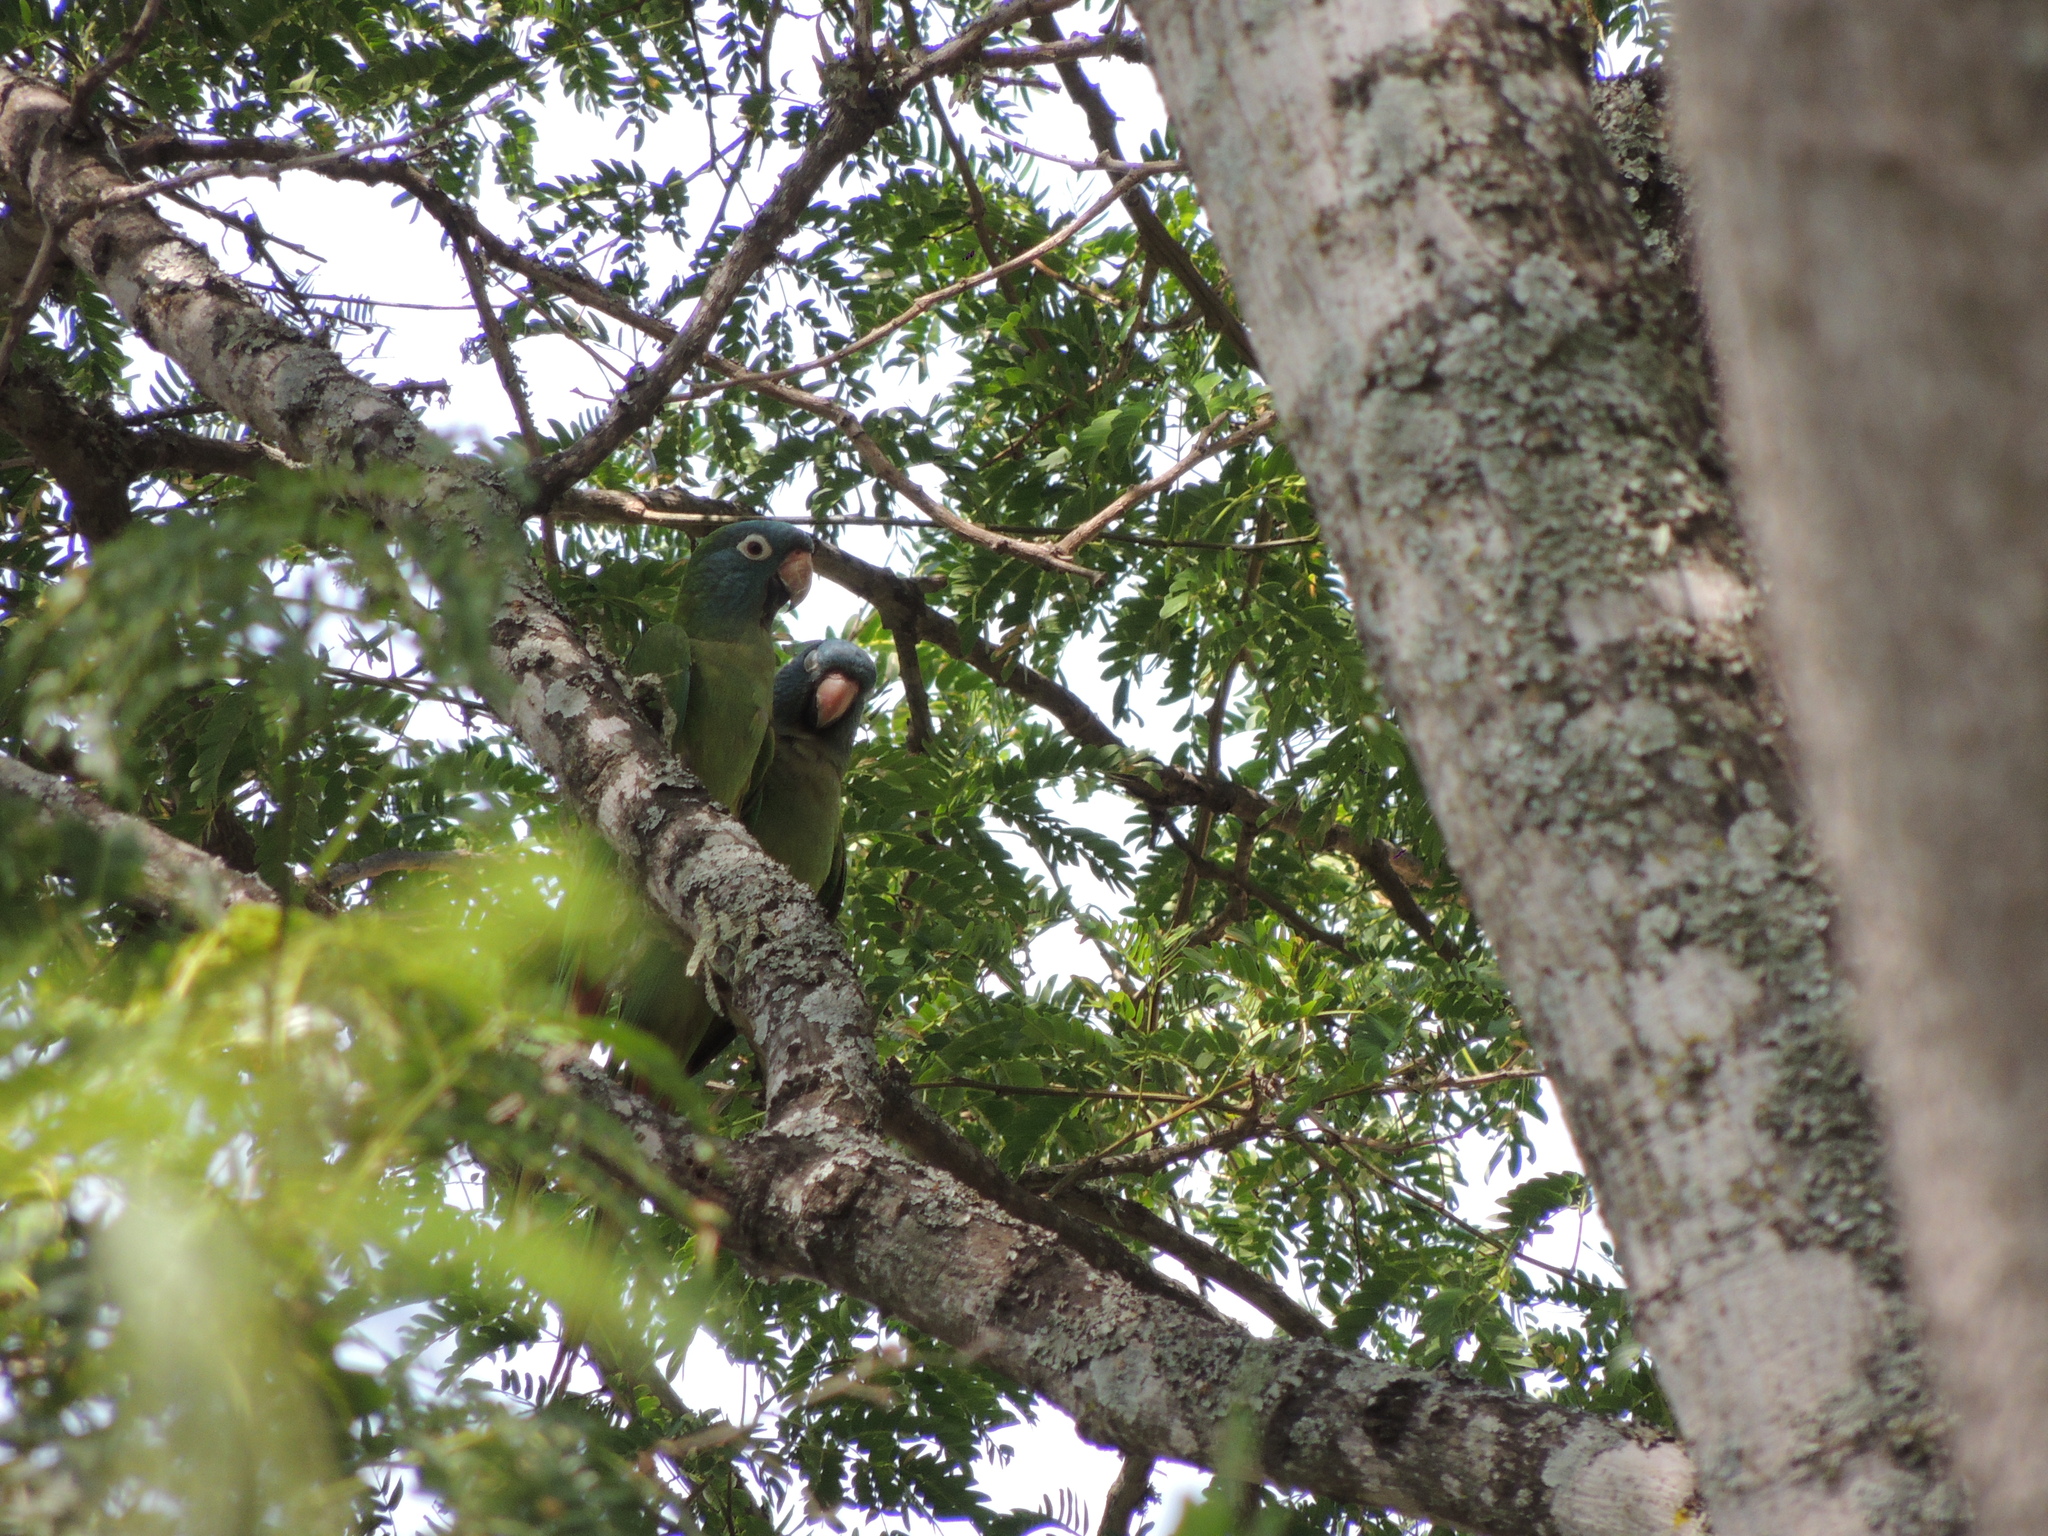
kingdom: Animalia
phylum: Chordata
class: Aves
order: Psittaciformes
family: Psittacidae
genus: Aratinga
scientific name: Aratinga acuticaudata
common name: Blue-crowned parakeet
